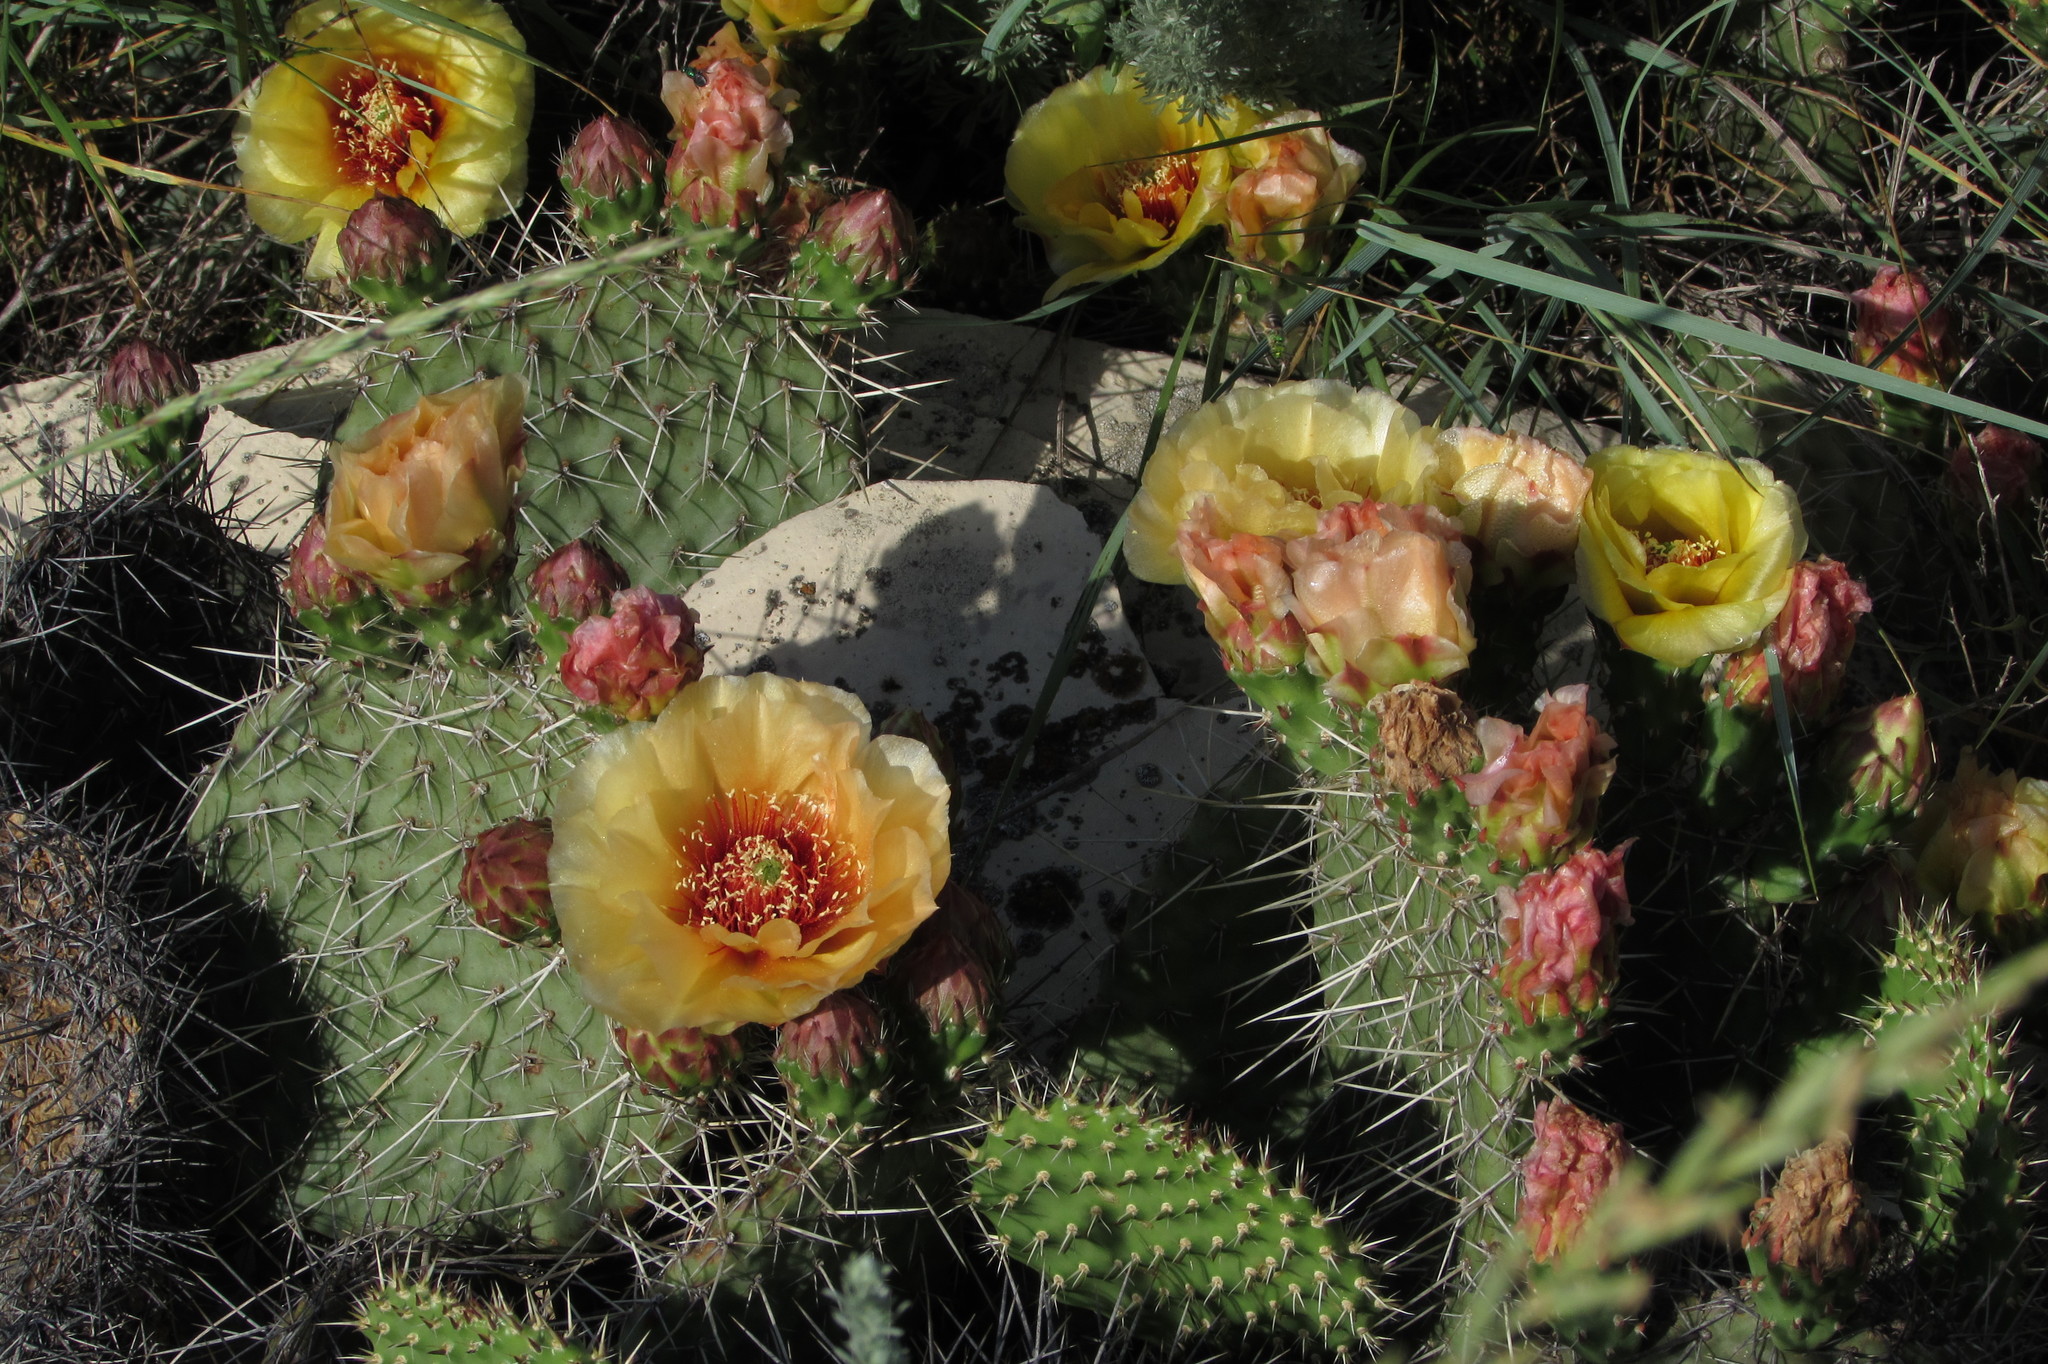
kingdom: Plantae
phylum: Tracheophyta
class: Magnoliopsida
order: Caryophyllales
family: Cactaceae
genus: Opuntia
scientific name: Opuntia polyacantha
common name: Plains prickly-pear
